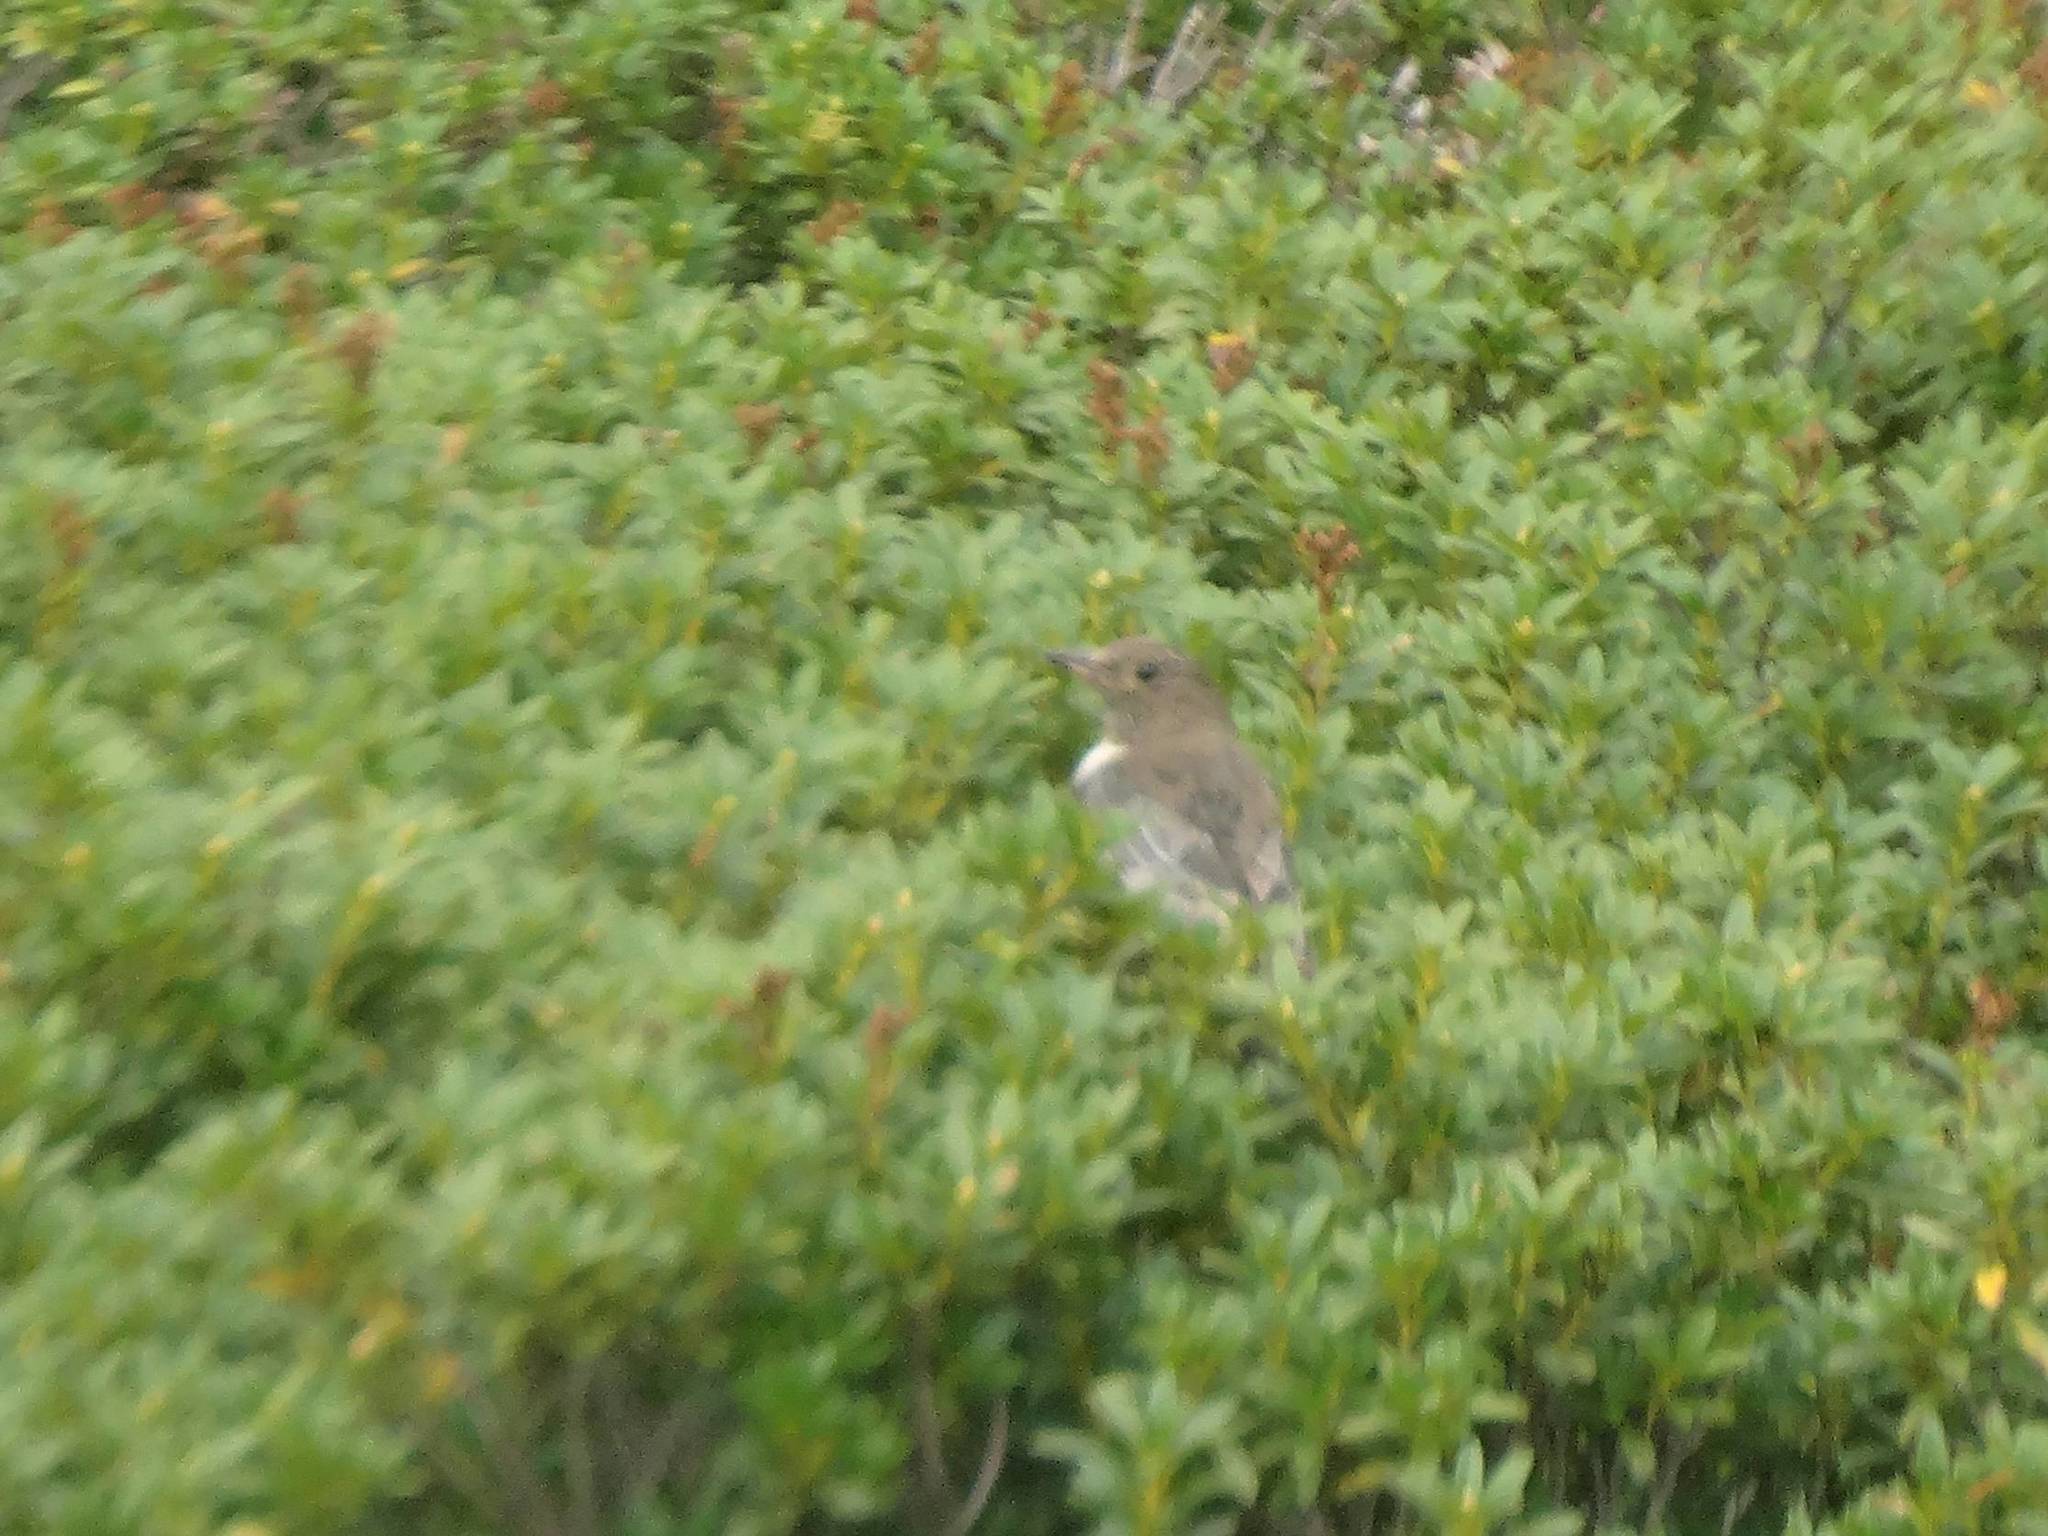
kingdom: Animalia
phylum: Chordata
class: Aves
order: Passeriformes
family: Turdidae
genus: Turdus
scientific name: Turdus torquatus
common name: Ring ouzel
